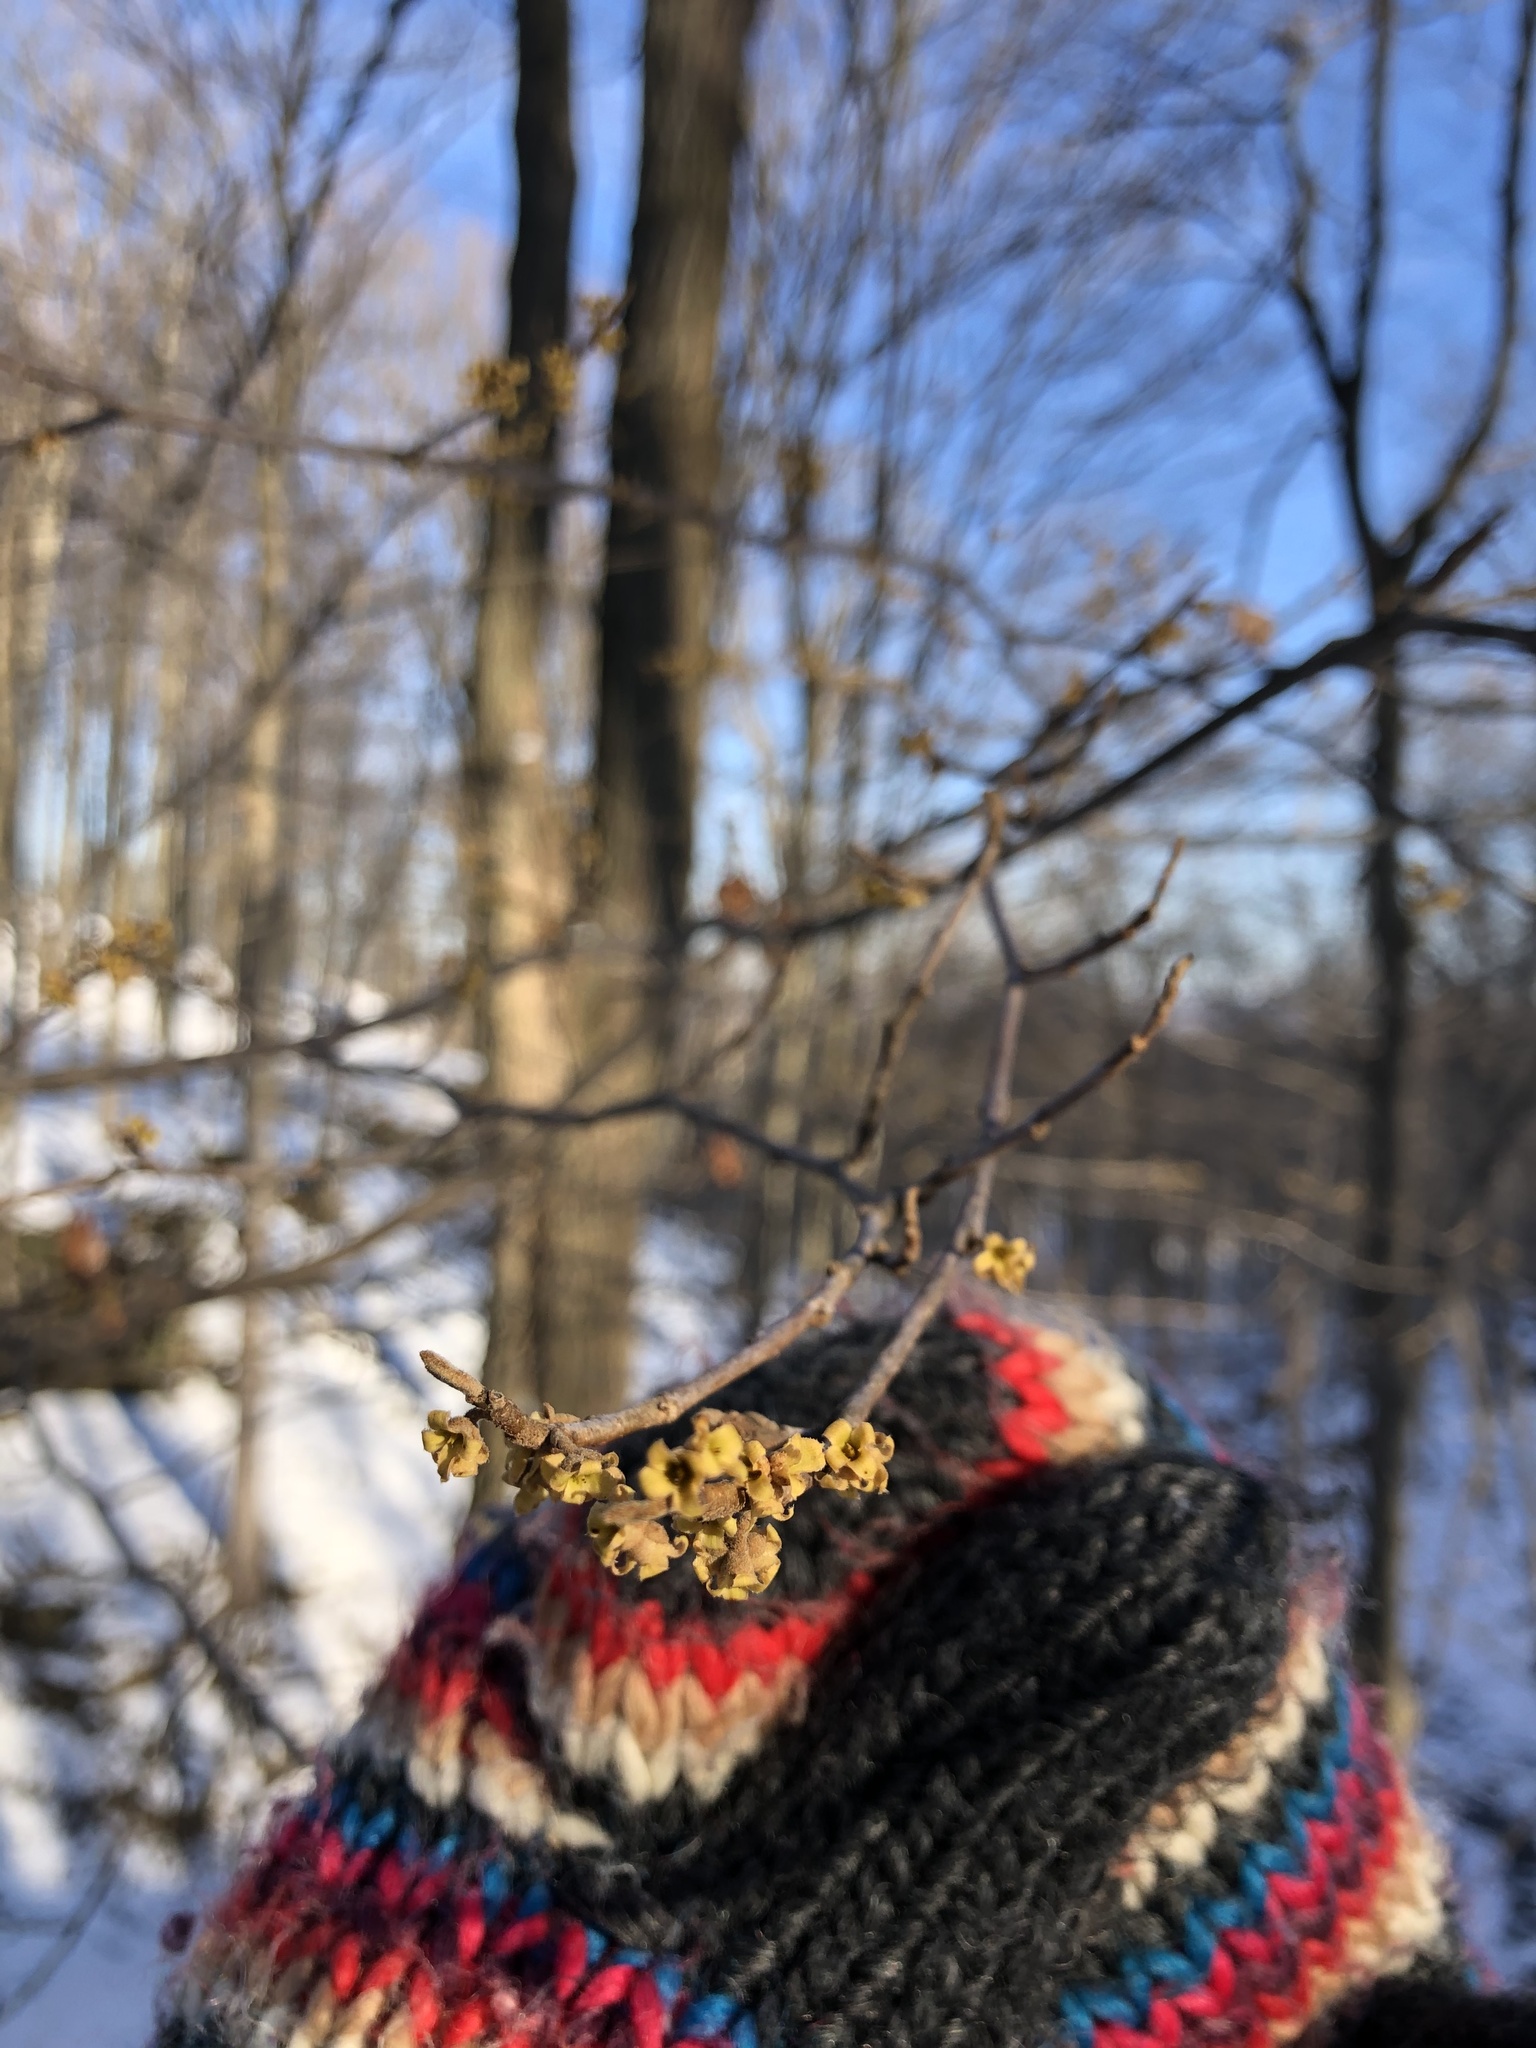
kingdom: Plantae
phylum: Tracheophyta
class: Magnoliopsida
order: Saxifragales
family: Hamamelidaceae
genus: Hamamelis
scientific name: Hamamelis virginiana
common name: Witch-hazel
